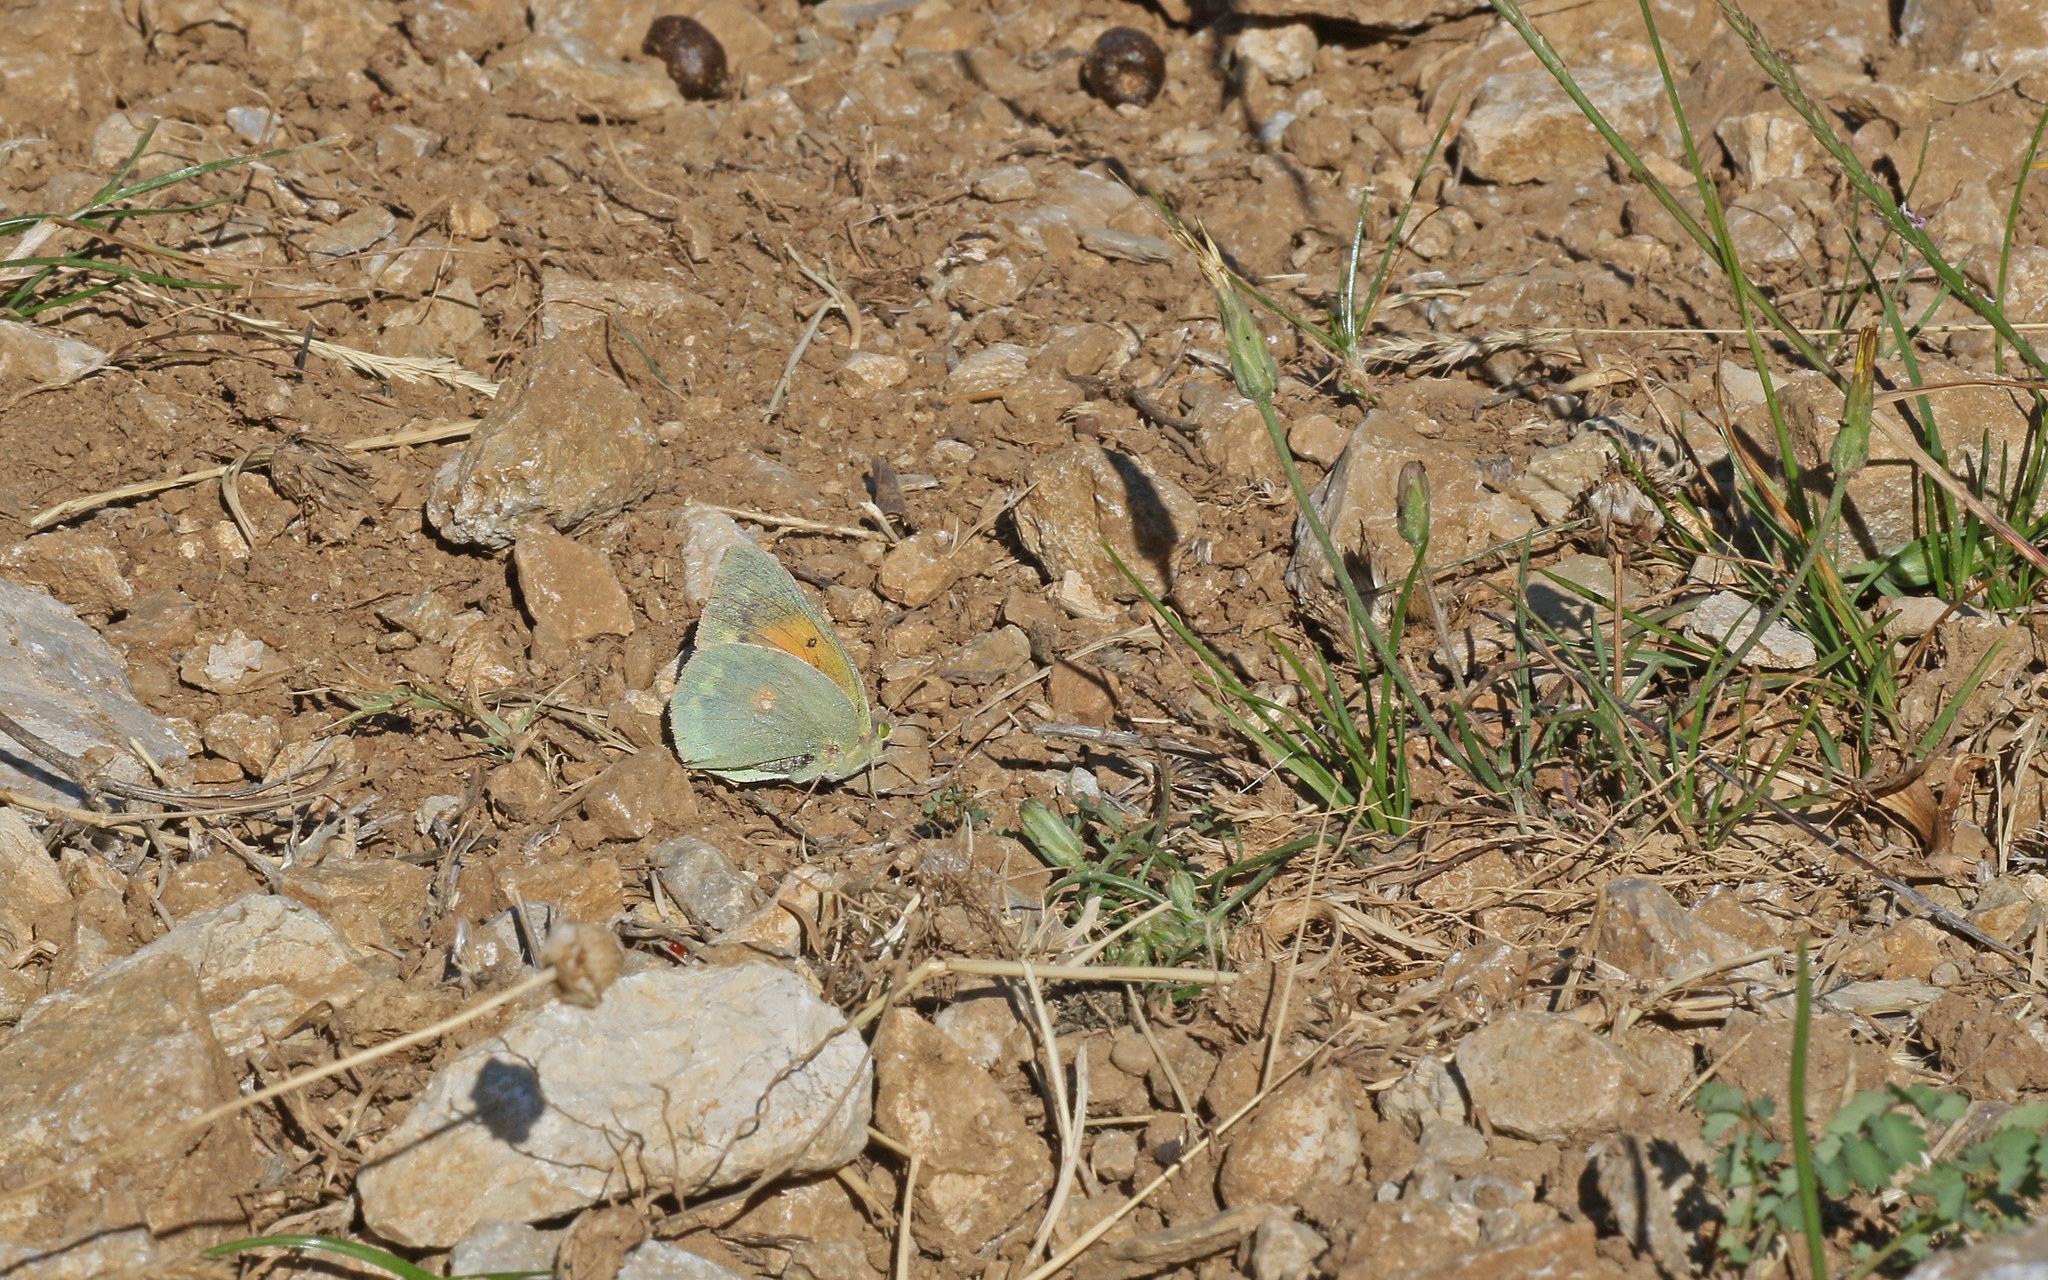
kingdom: Animalia
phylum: Arthropoda
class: Insecta
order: Lepidoptera
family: Pieridae
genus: Colias
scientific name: Colias aurorina
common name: Greek clouded yellow
